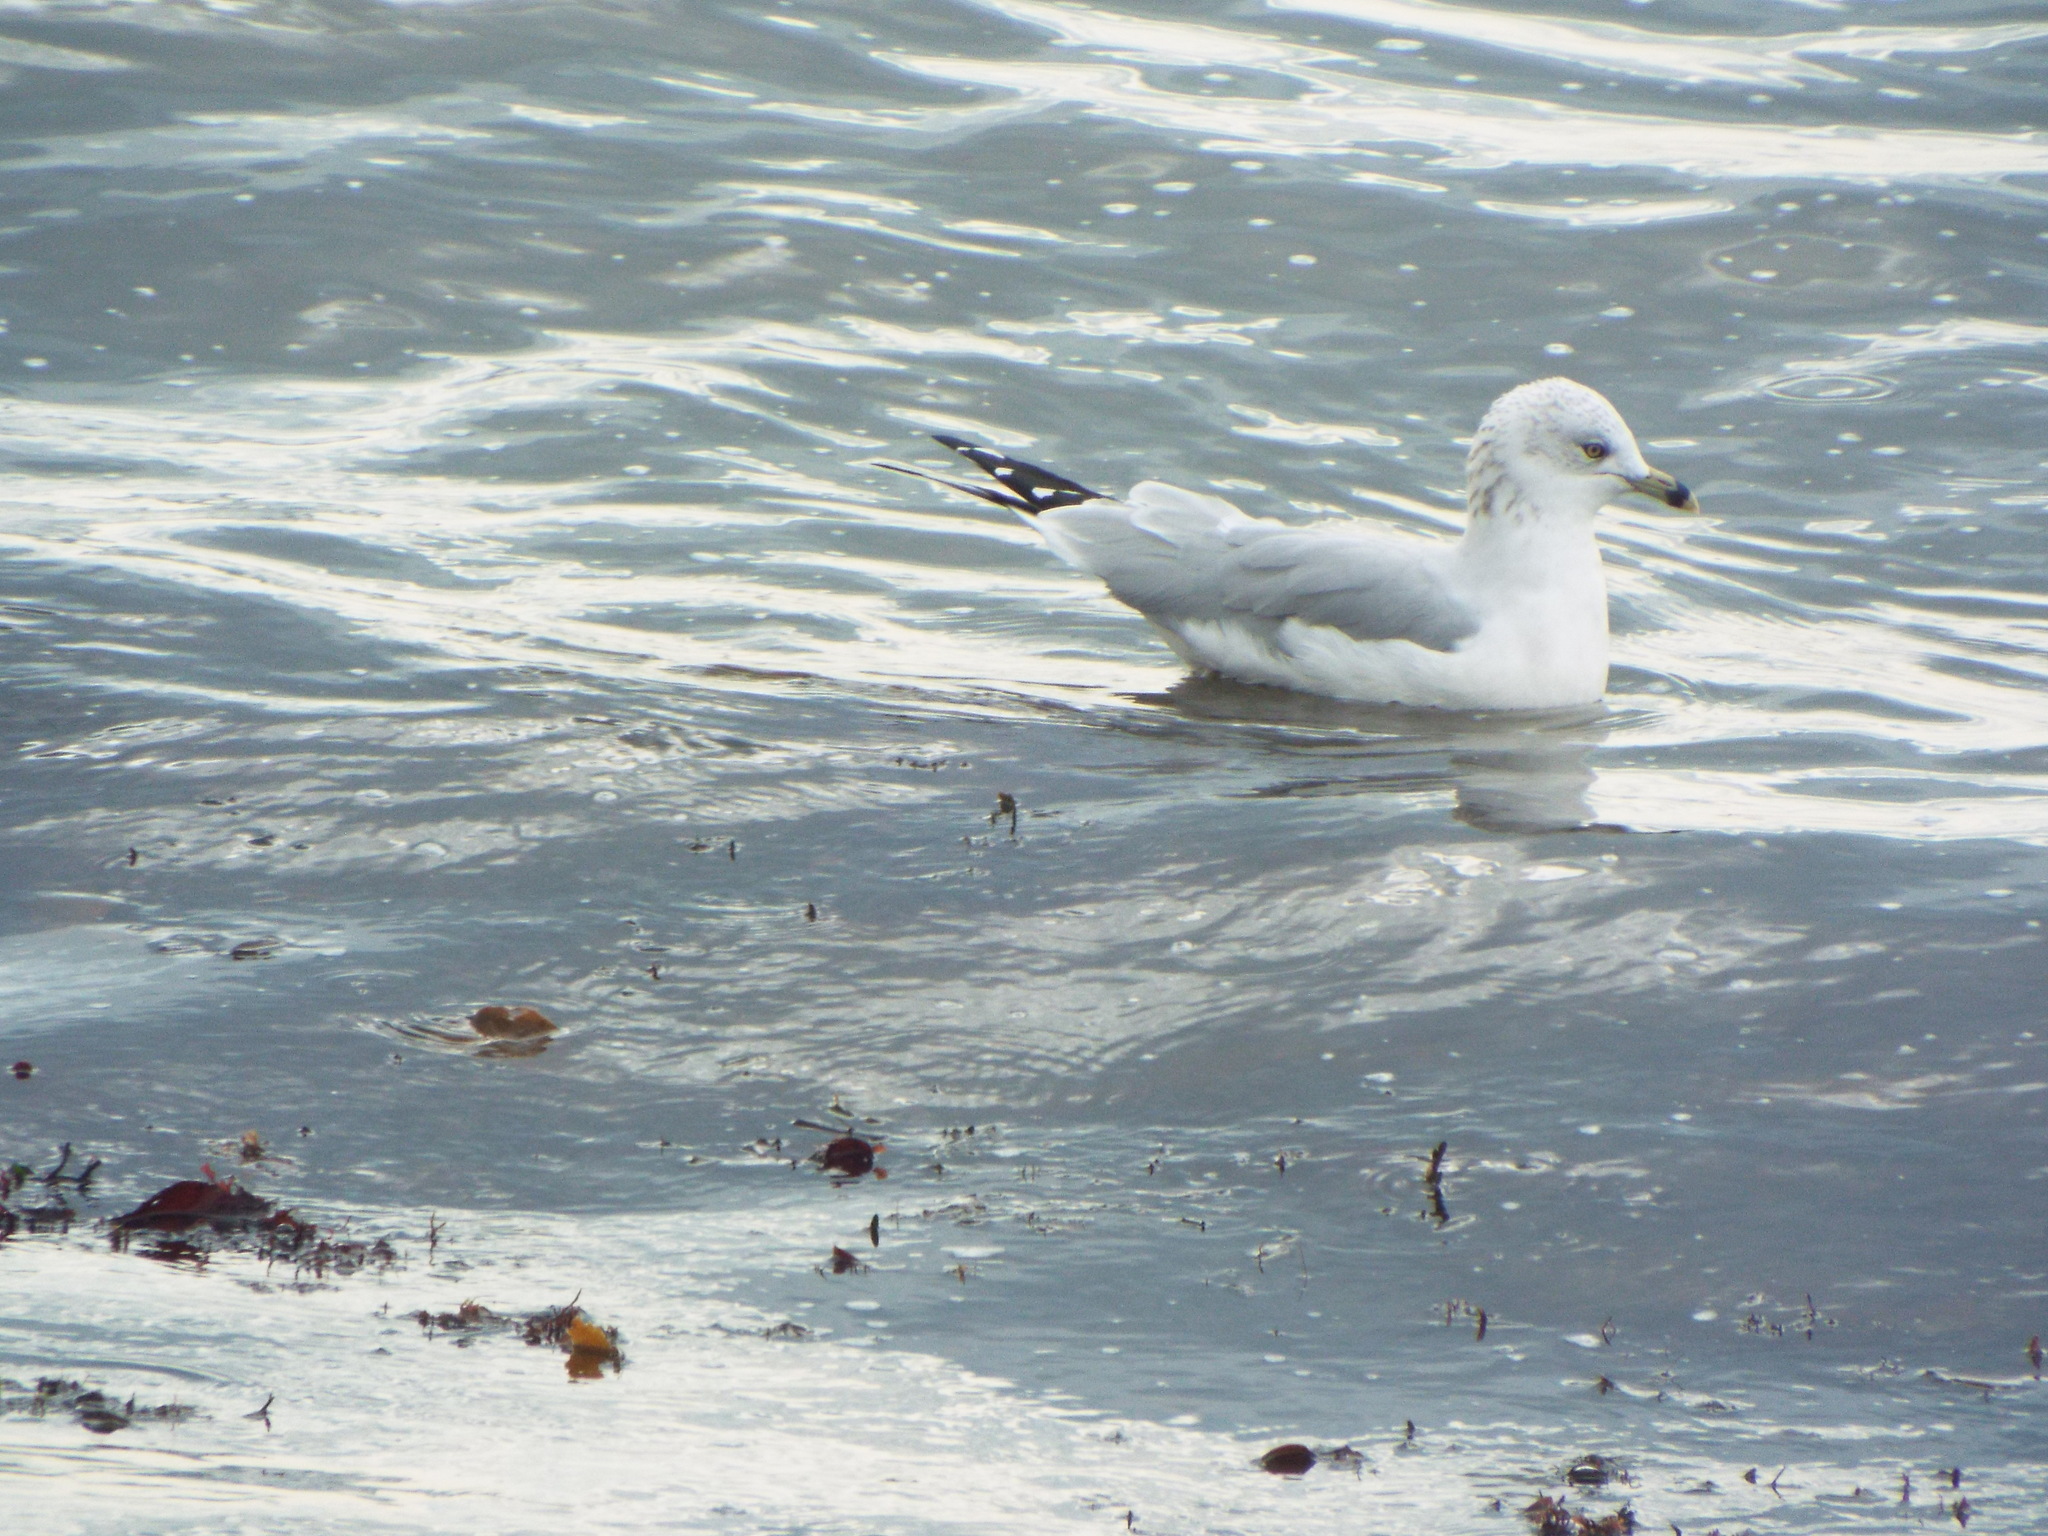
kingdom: Animalia
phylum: Chordata
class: Aves
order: Charadriiformes
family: Laridae
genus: Larus
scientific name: Larus delawarensis
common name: Ring-billed gull
